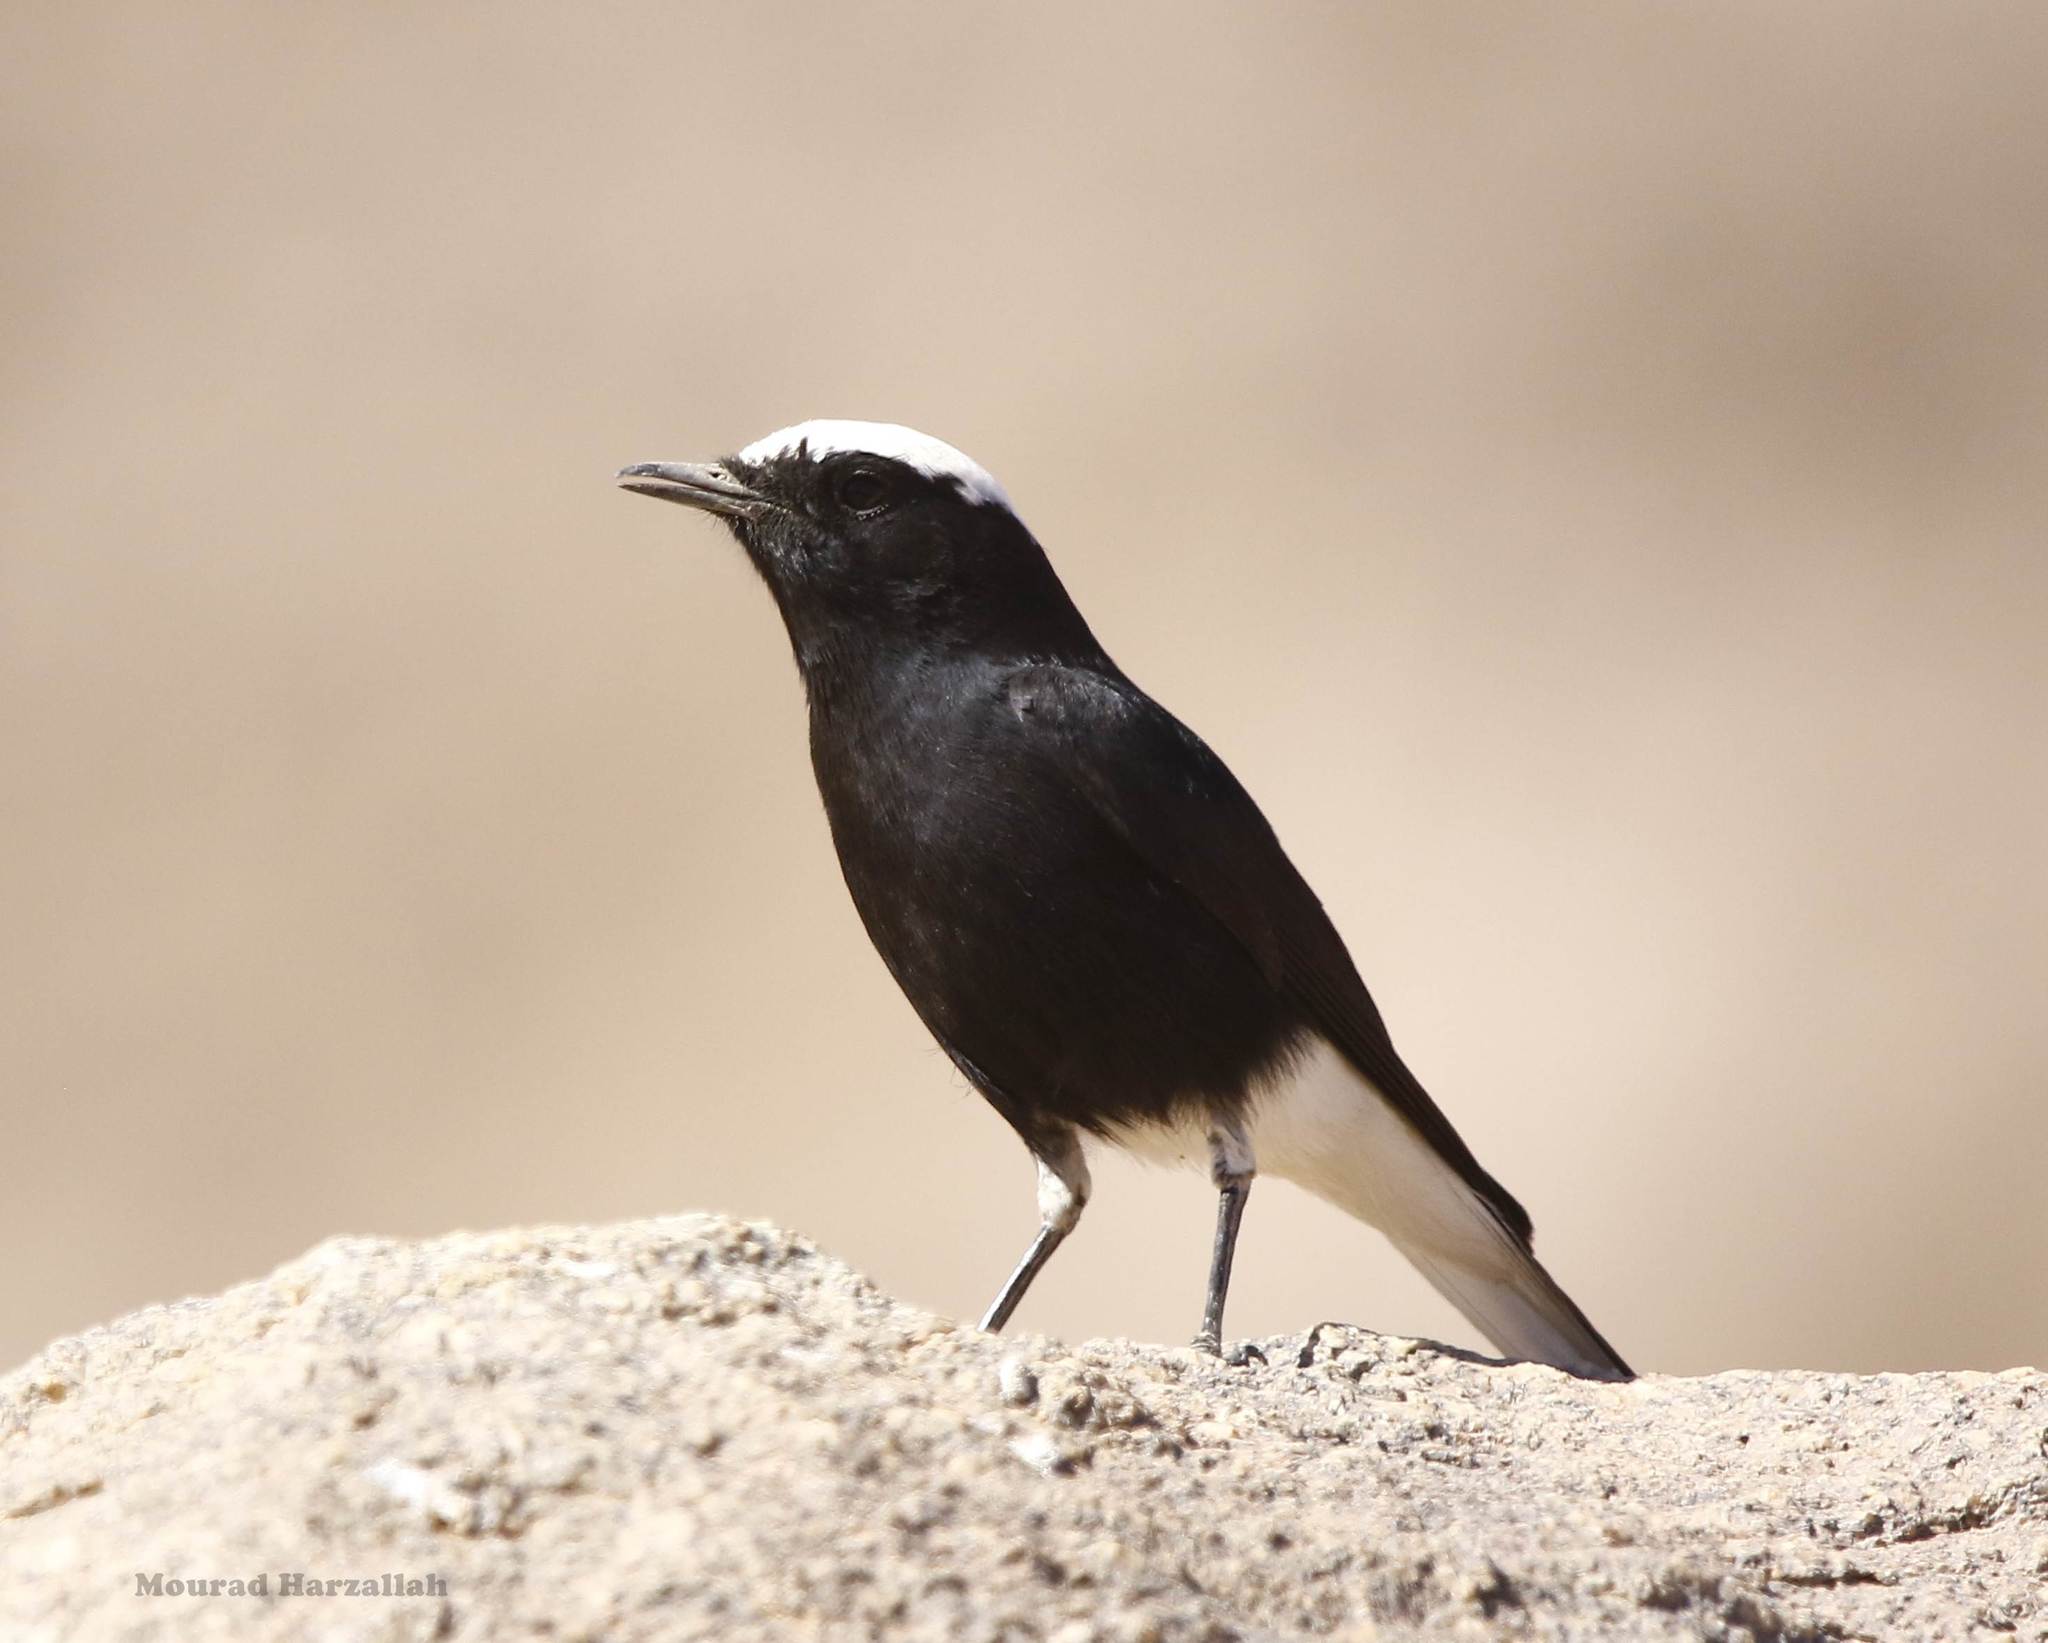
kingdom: Animalia
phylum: Chordata
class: Aves
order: Passeriformes
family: Muscicapidae
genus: Oenanthe
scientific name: Oenanthe leucopyga
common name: White-crowned wheatear
